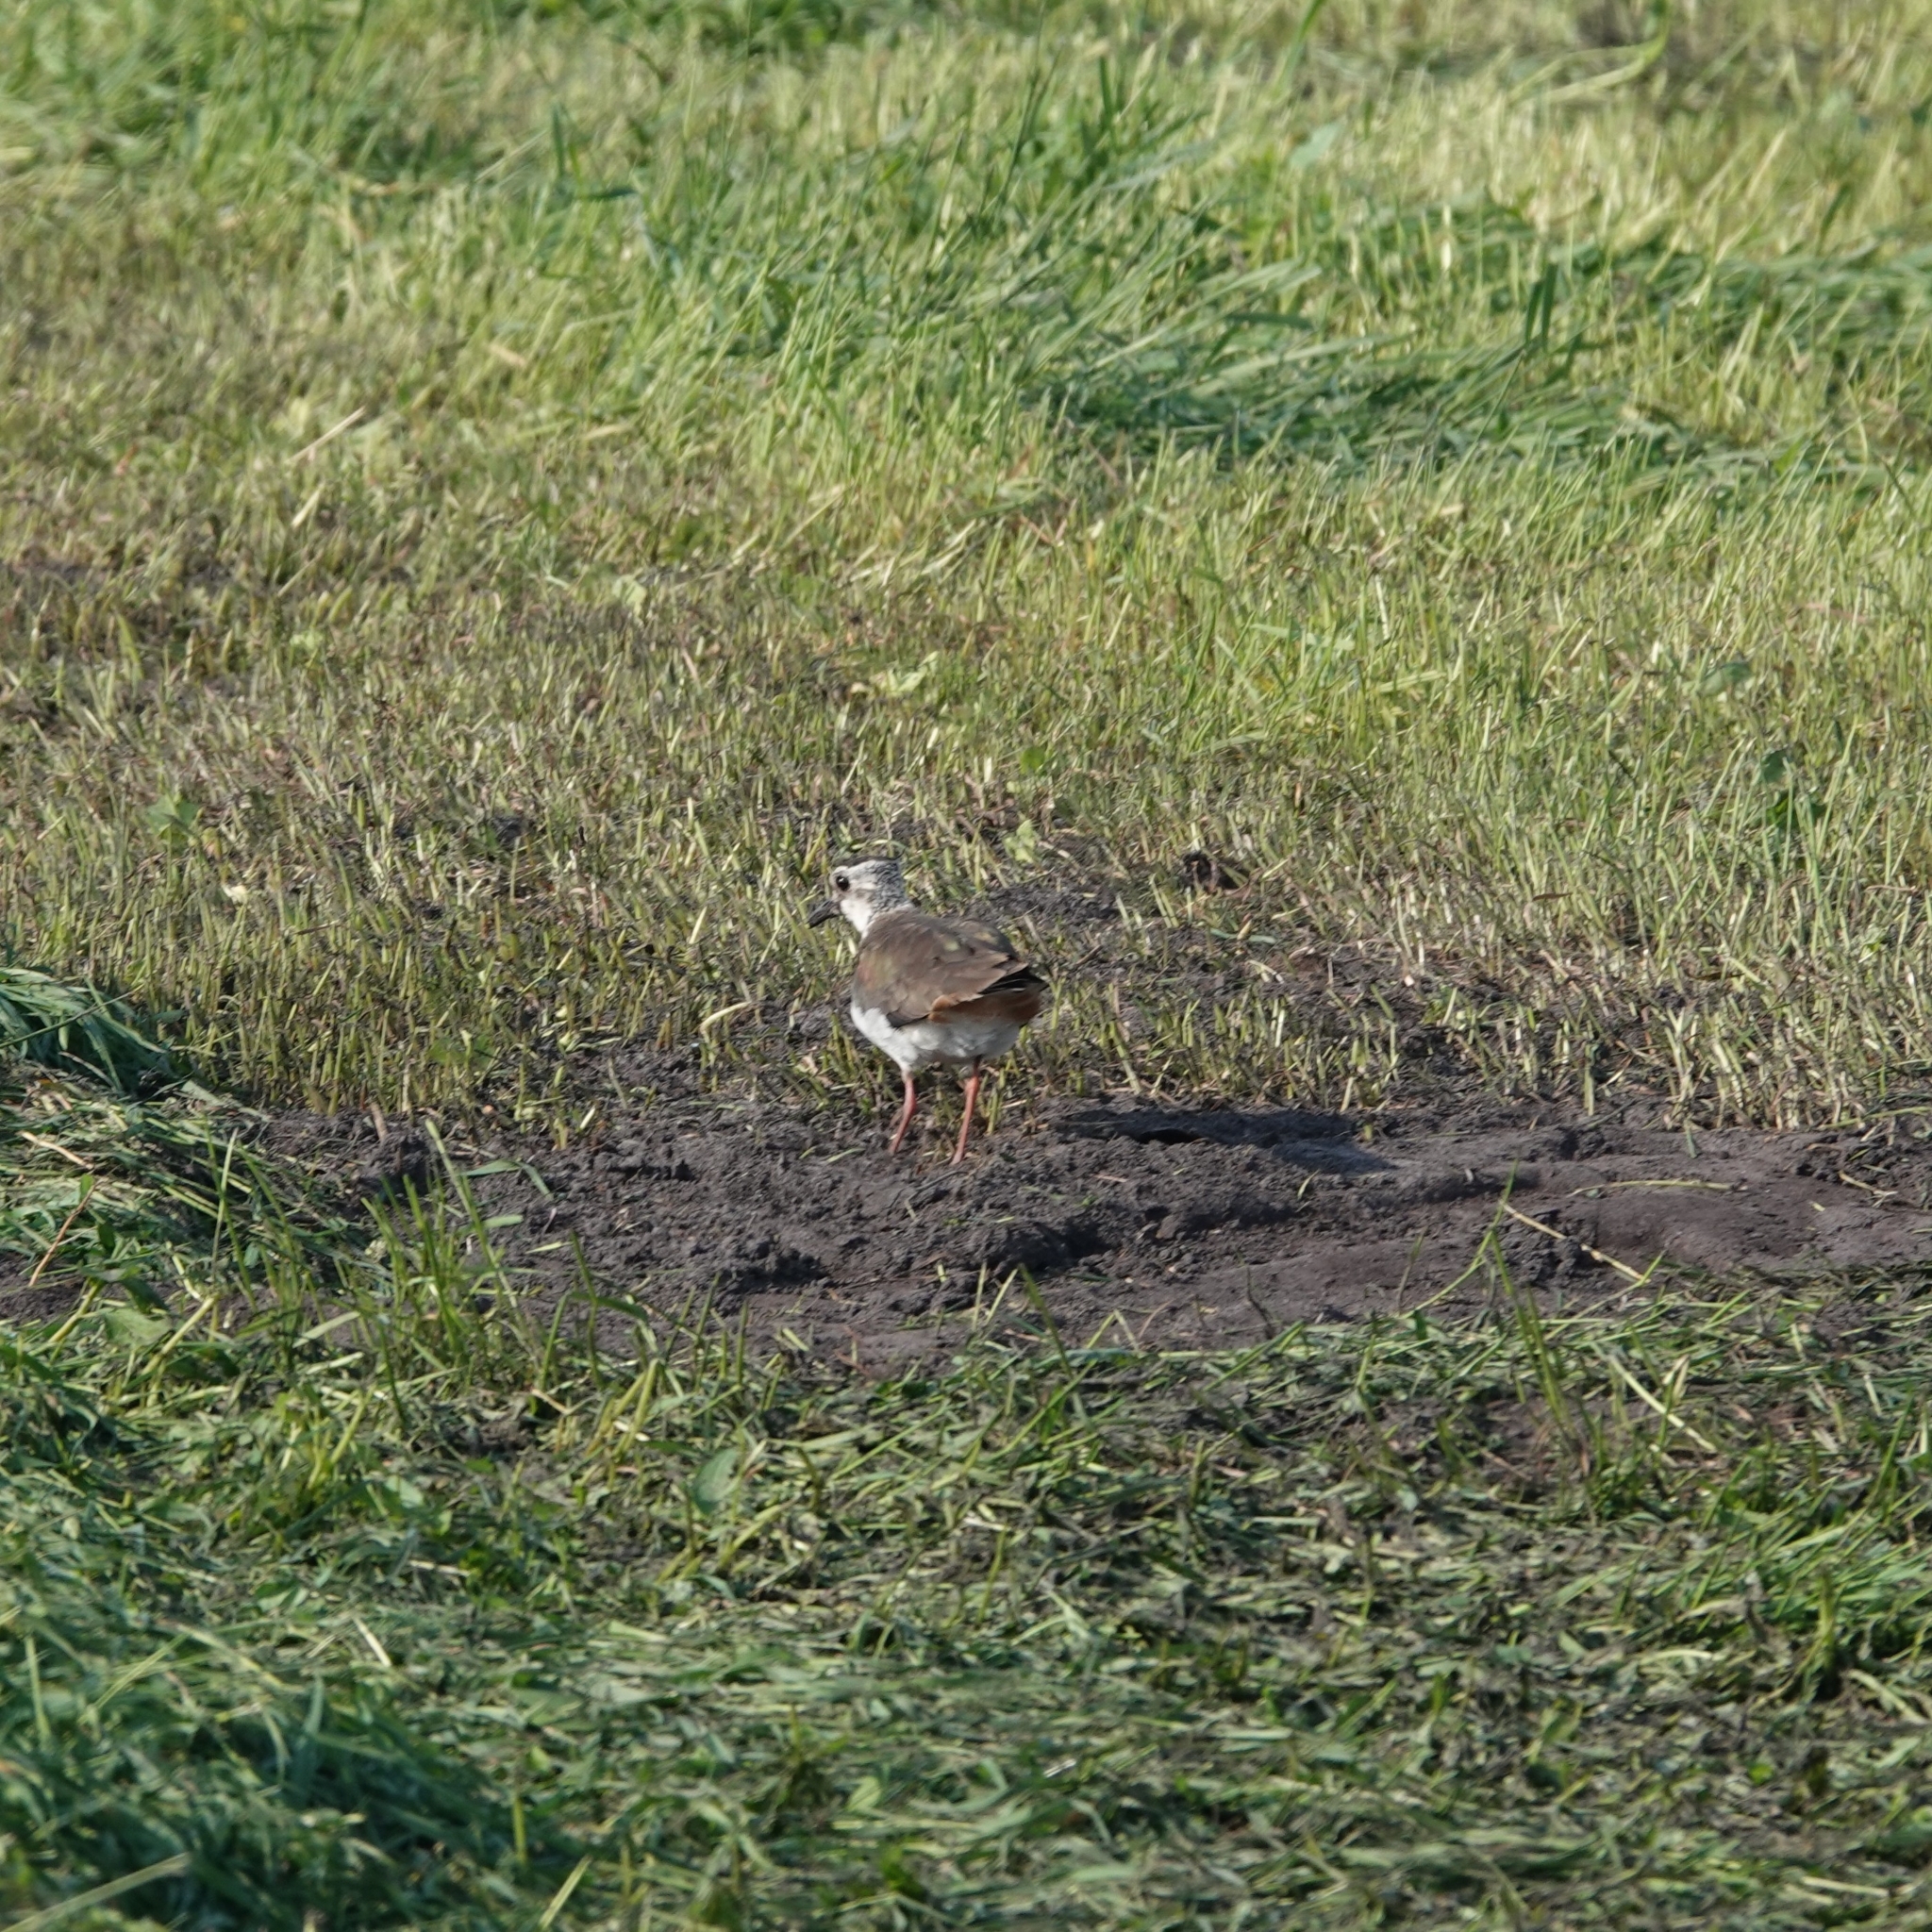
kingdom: Animalia
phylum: Chordata
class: Aves
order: Charadriiformes
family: Charadriidae
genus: Vanellus
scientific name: Vanellus vanellus
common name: Northern lapwing
